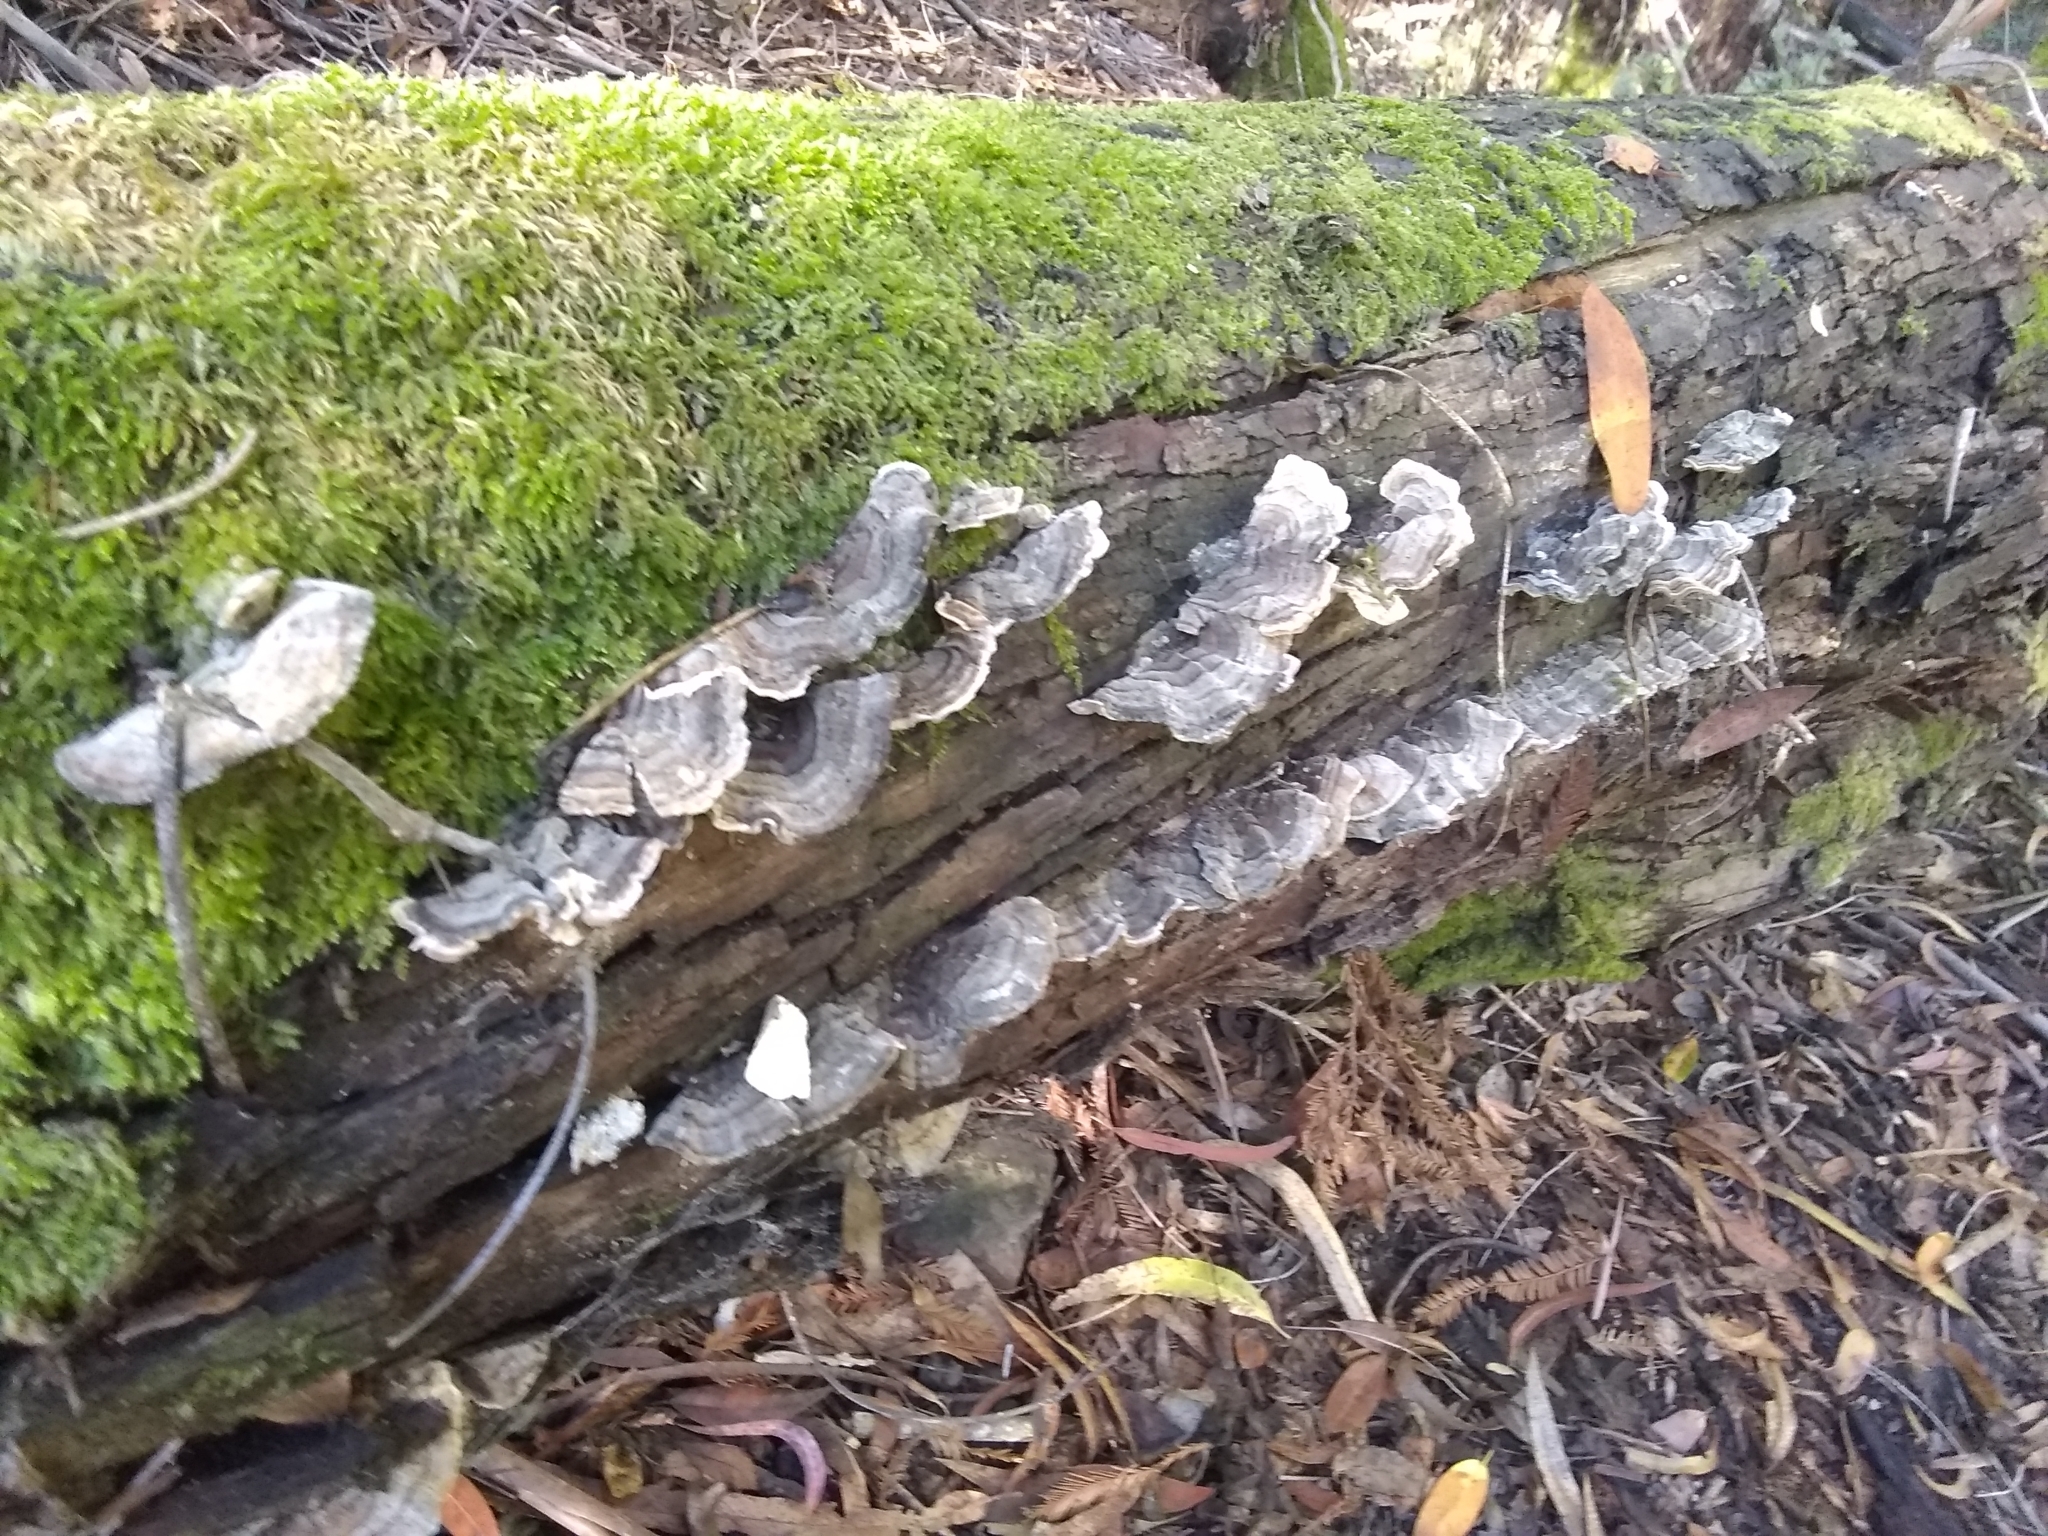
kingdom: Fungi
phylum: Basidiomycota
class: Agaricomycetes
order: Polyporales
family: Polyporaceae
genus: Trametes
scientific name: Trametes versicolor
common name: Turkeytail
